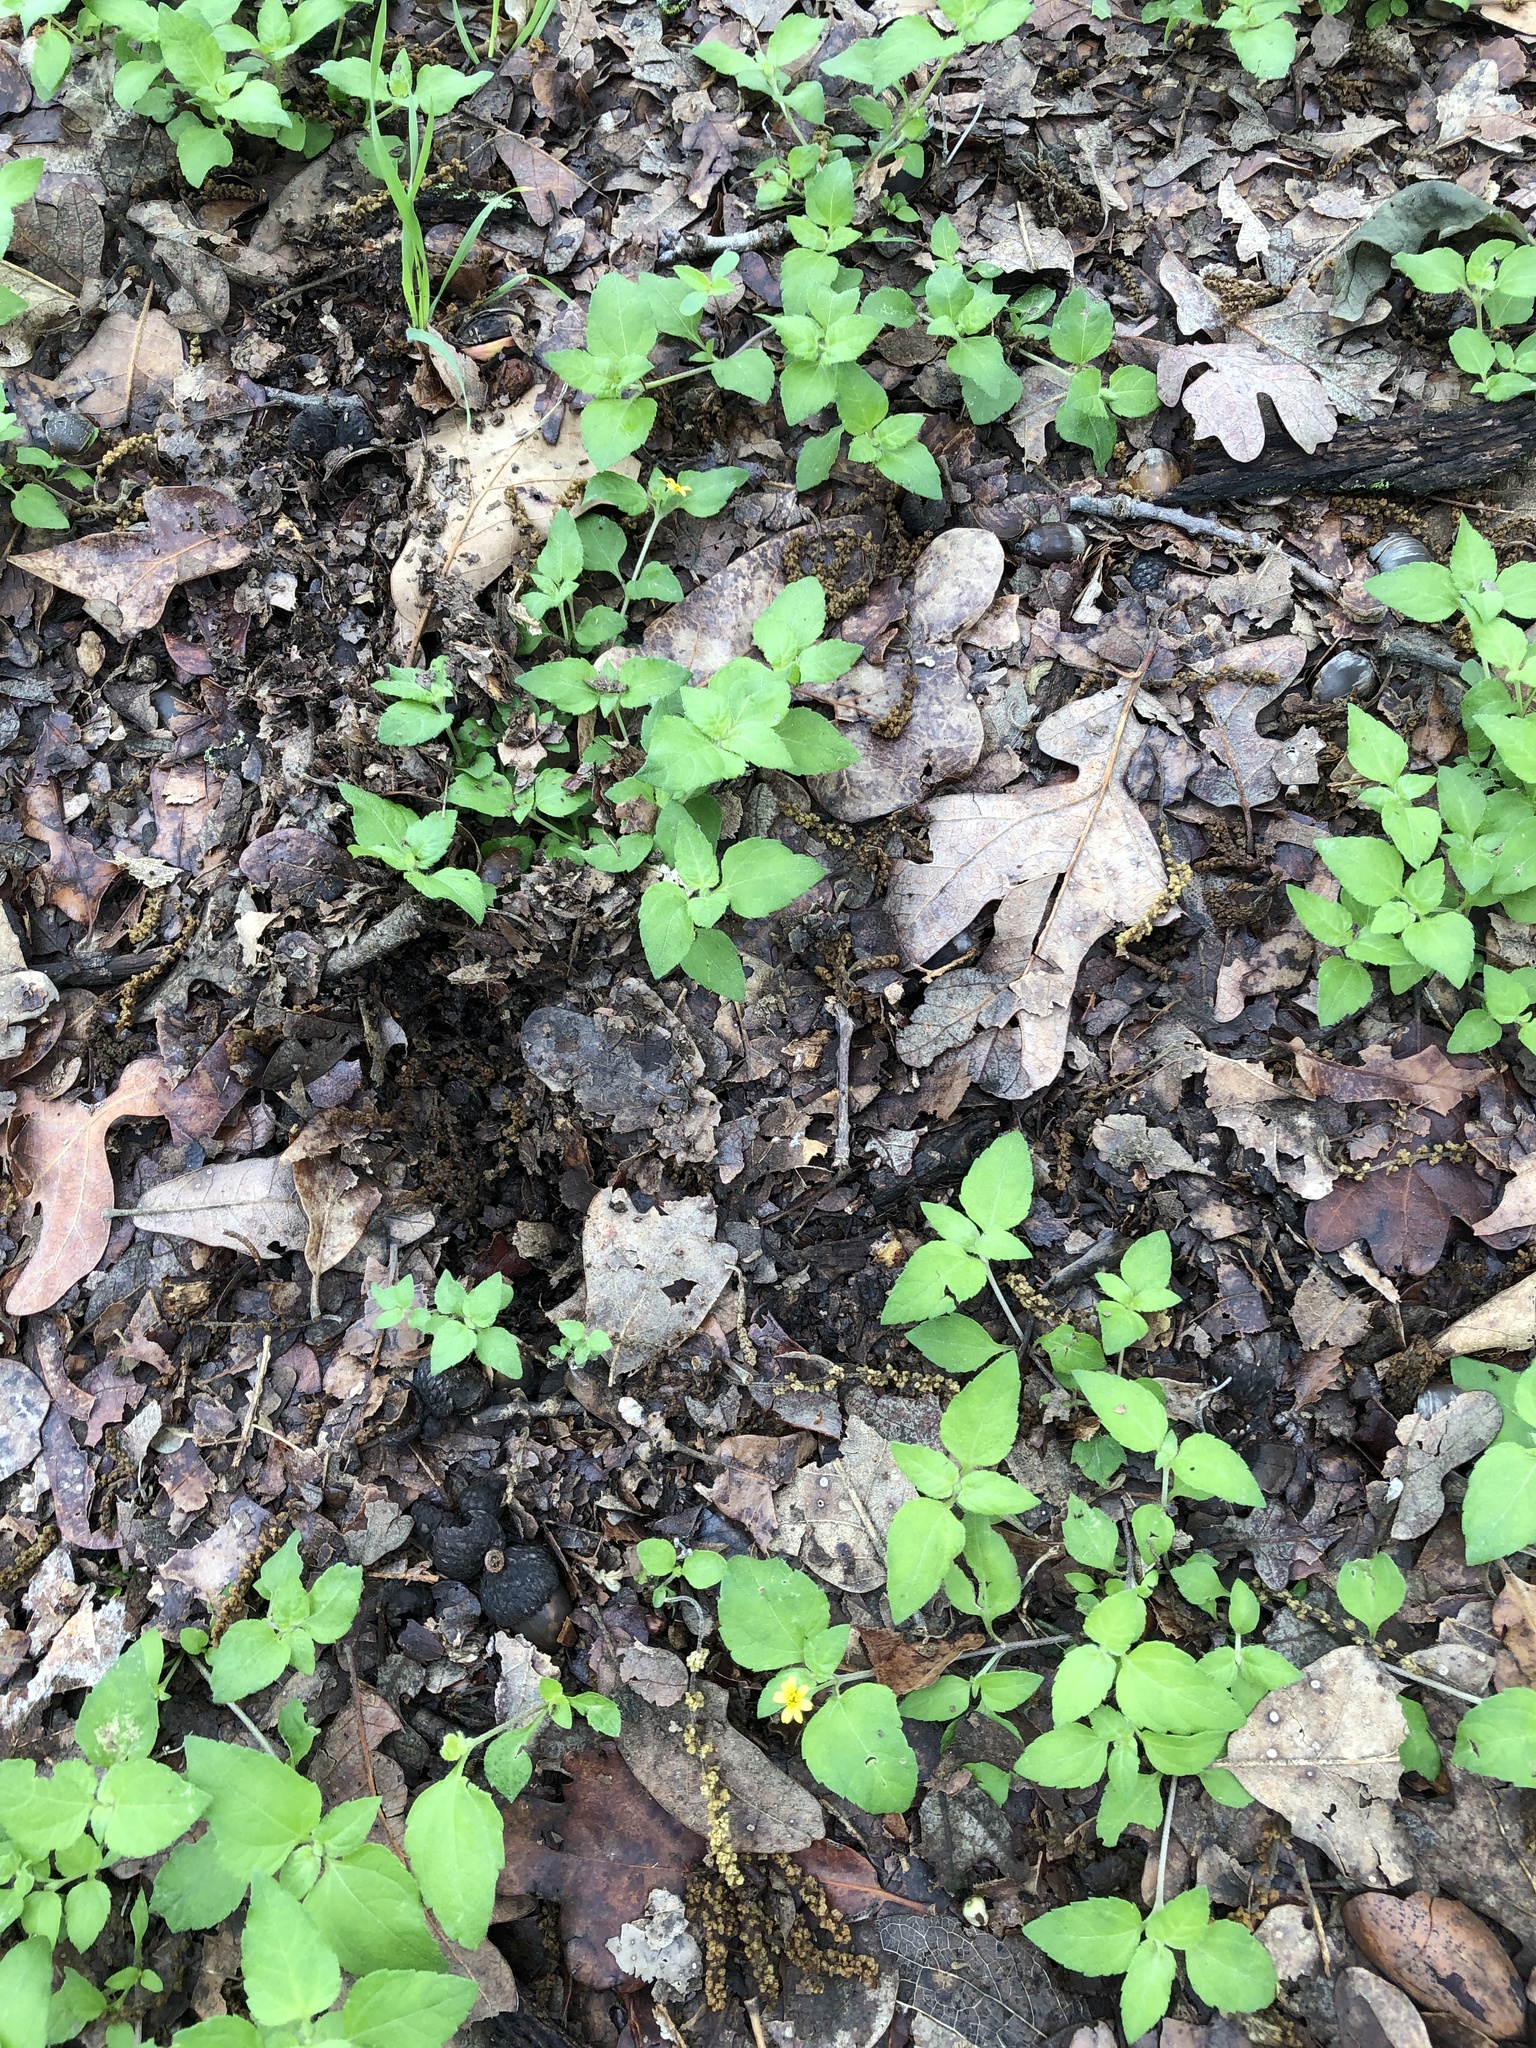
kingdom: Plantae
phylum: Tracheophyta
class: Magnoliopsida
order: Asterales
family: Asteraceae
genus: Calyptocarpus
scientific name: Calyptocarpus vialis
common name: Straggler daisy
